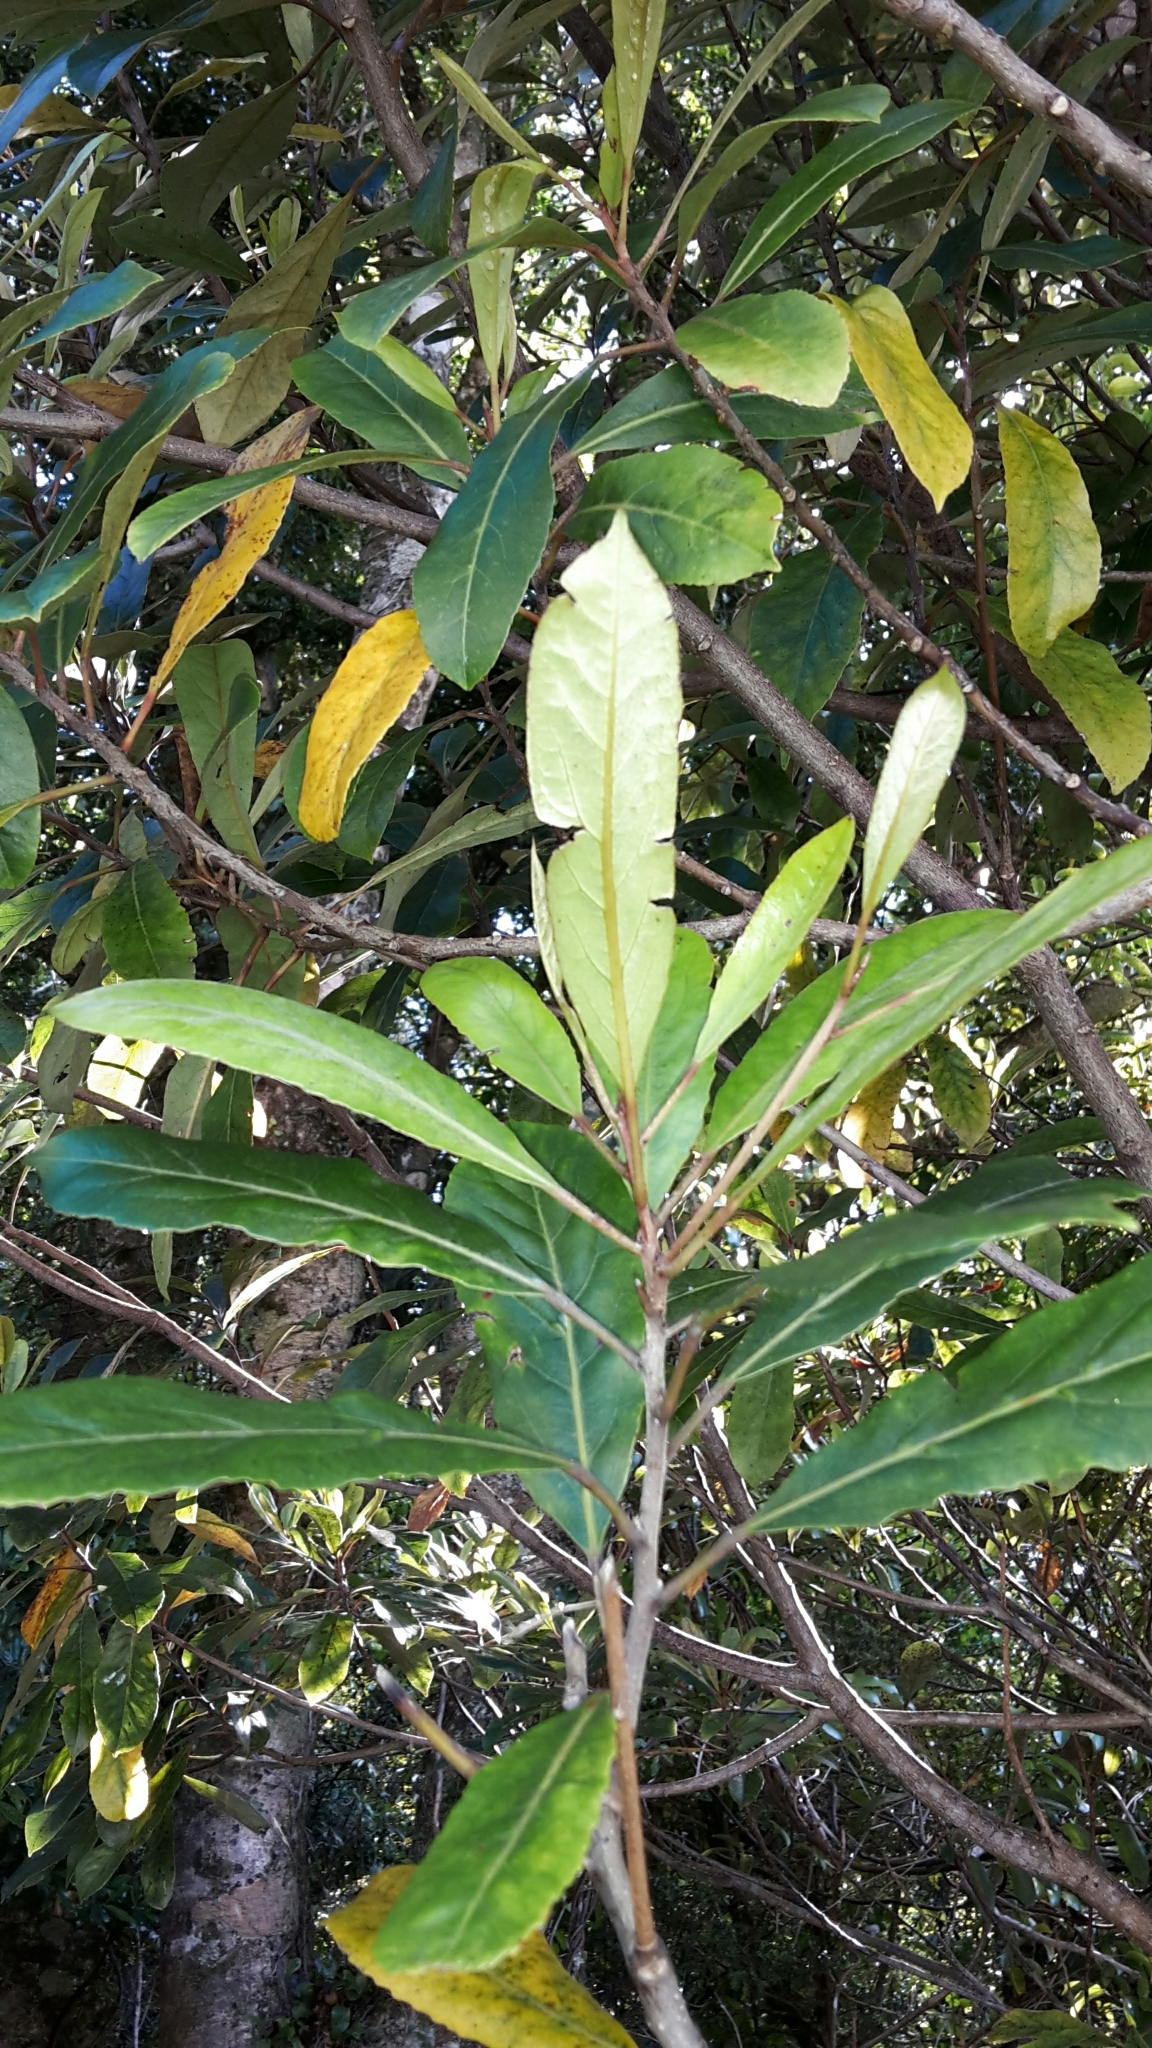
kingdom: Plantae
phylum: Tracheophyta
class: Magnoliopsida
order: Oxalidales
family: Elaeocarpaceae
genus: Elaeocarpus
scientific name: Elaeocarpus dentatus
